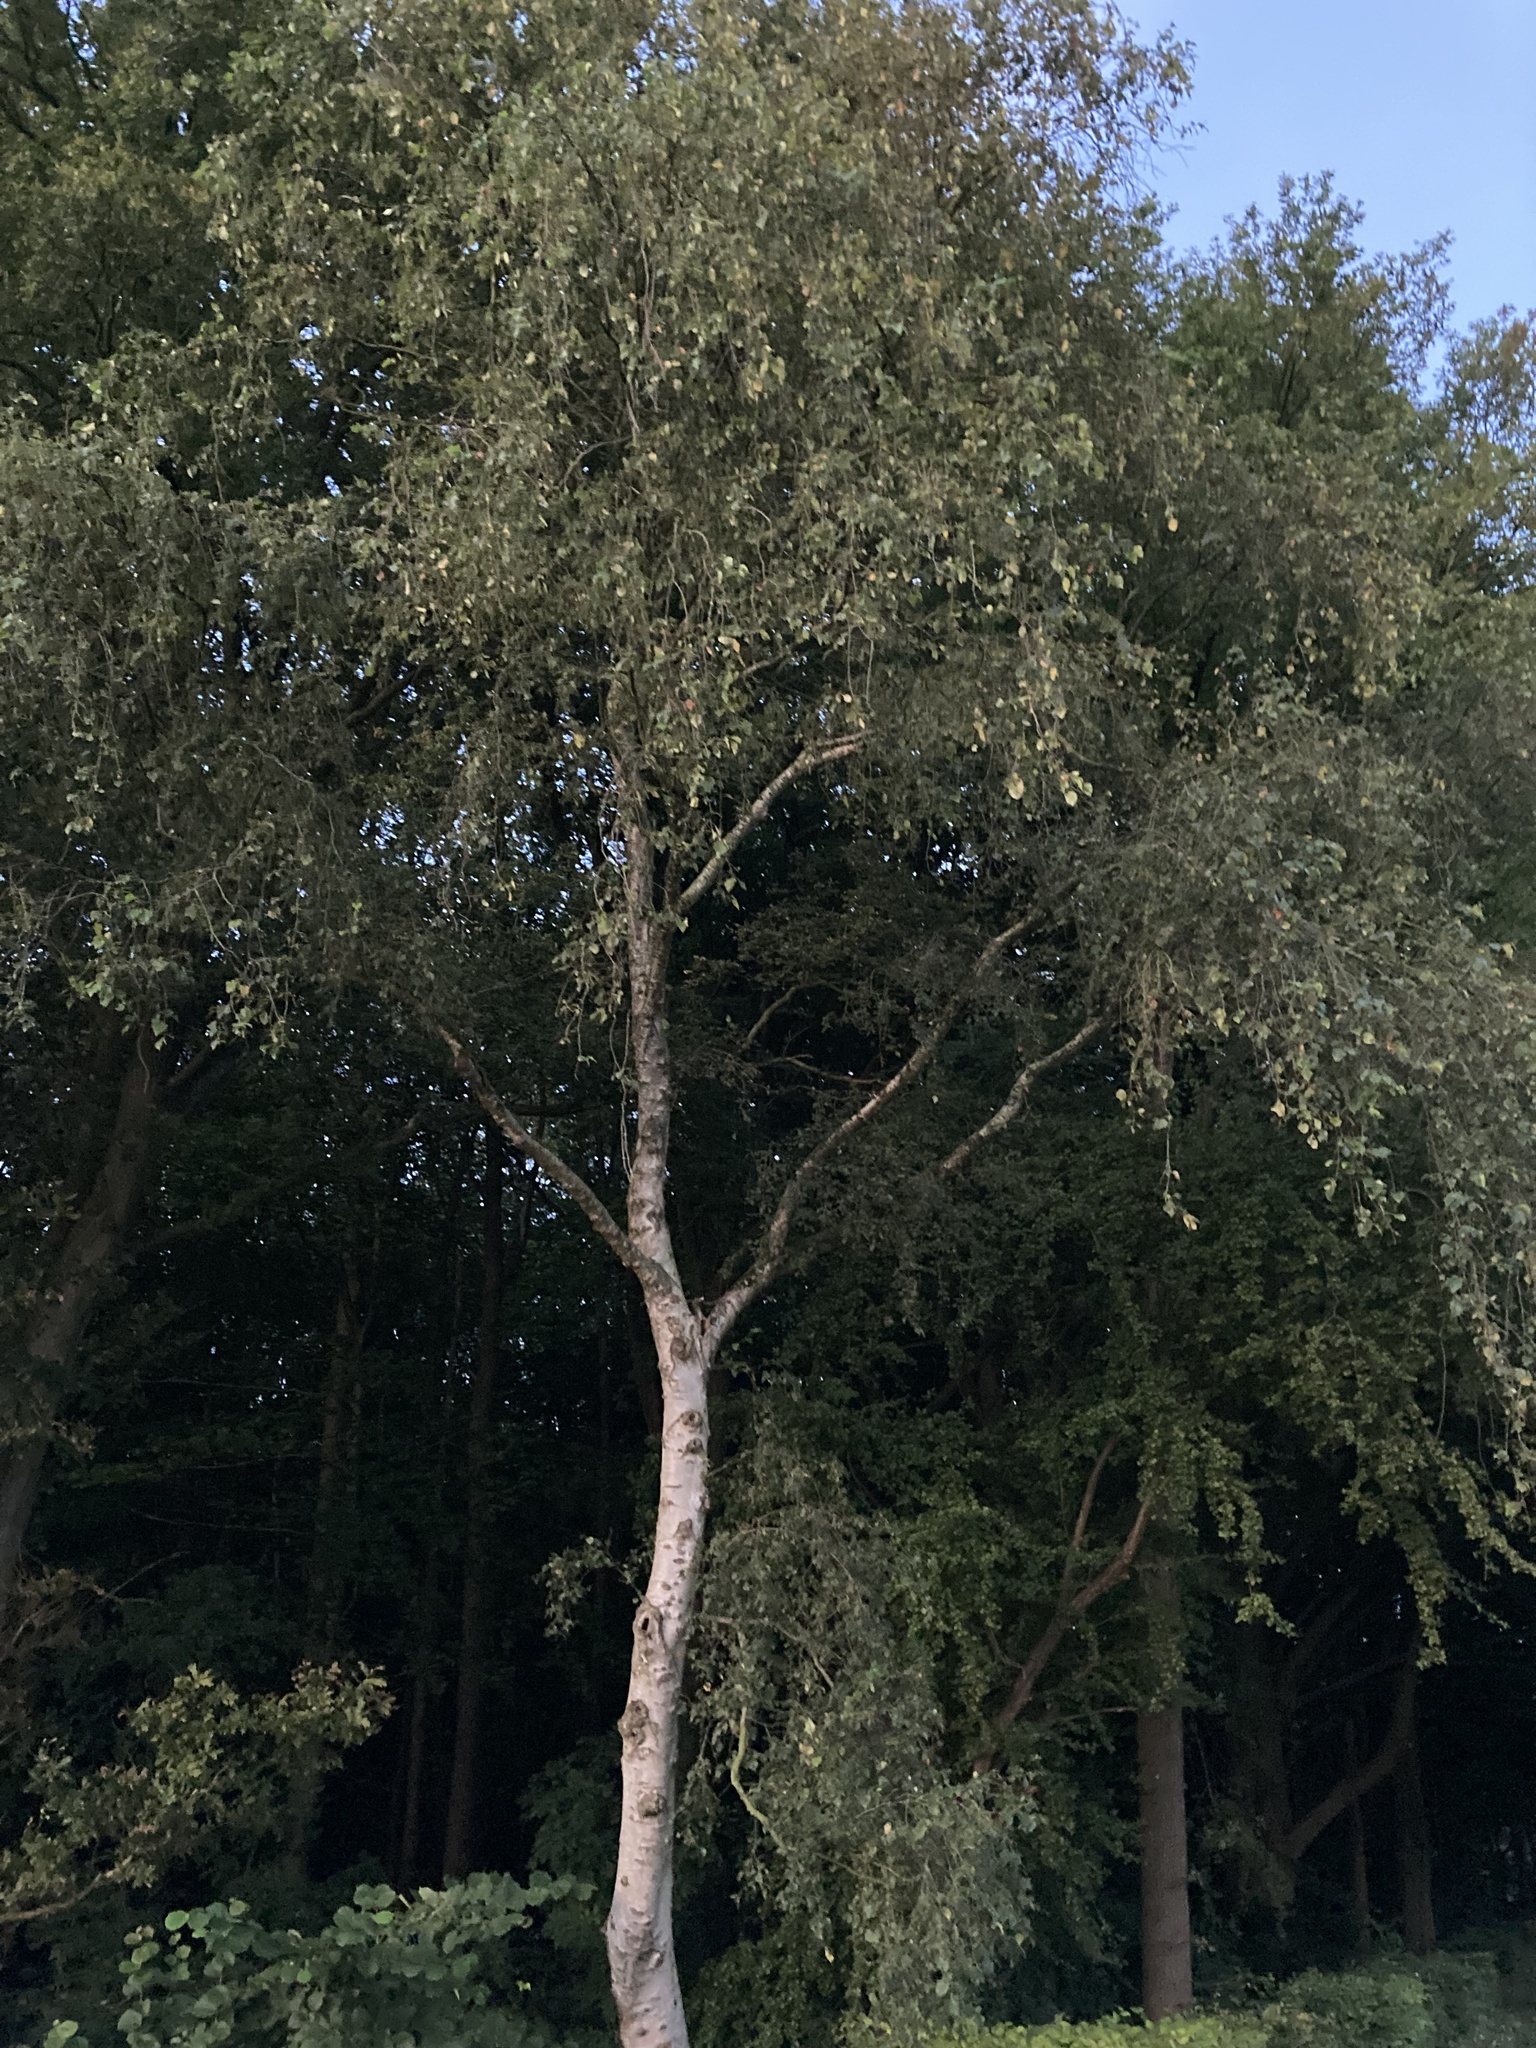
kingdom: Plantae
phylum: Tracheophyta
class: Magnoliopsida
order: Fagales
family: Betulaceae
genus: Betula
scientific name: Betula pendula
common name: Silver birch
